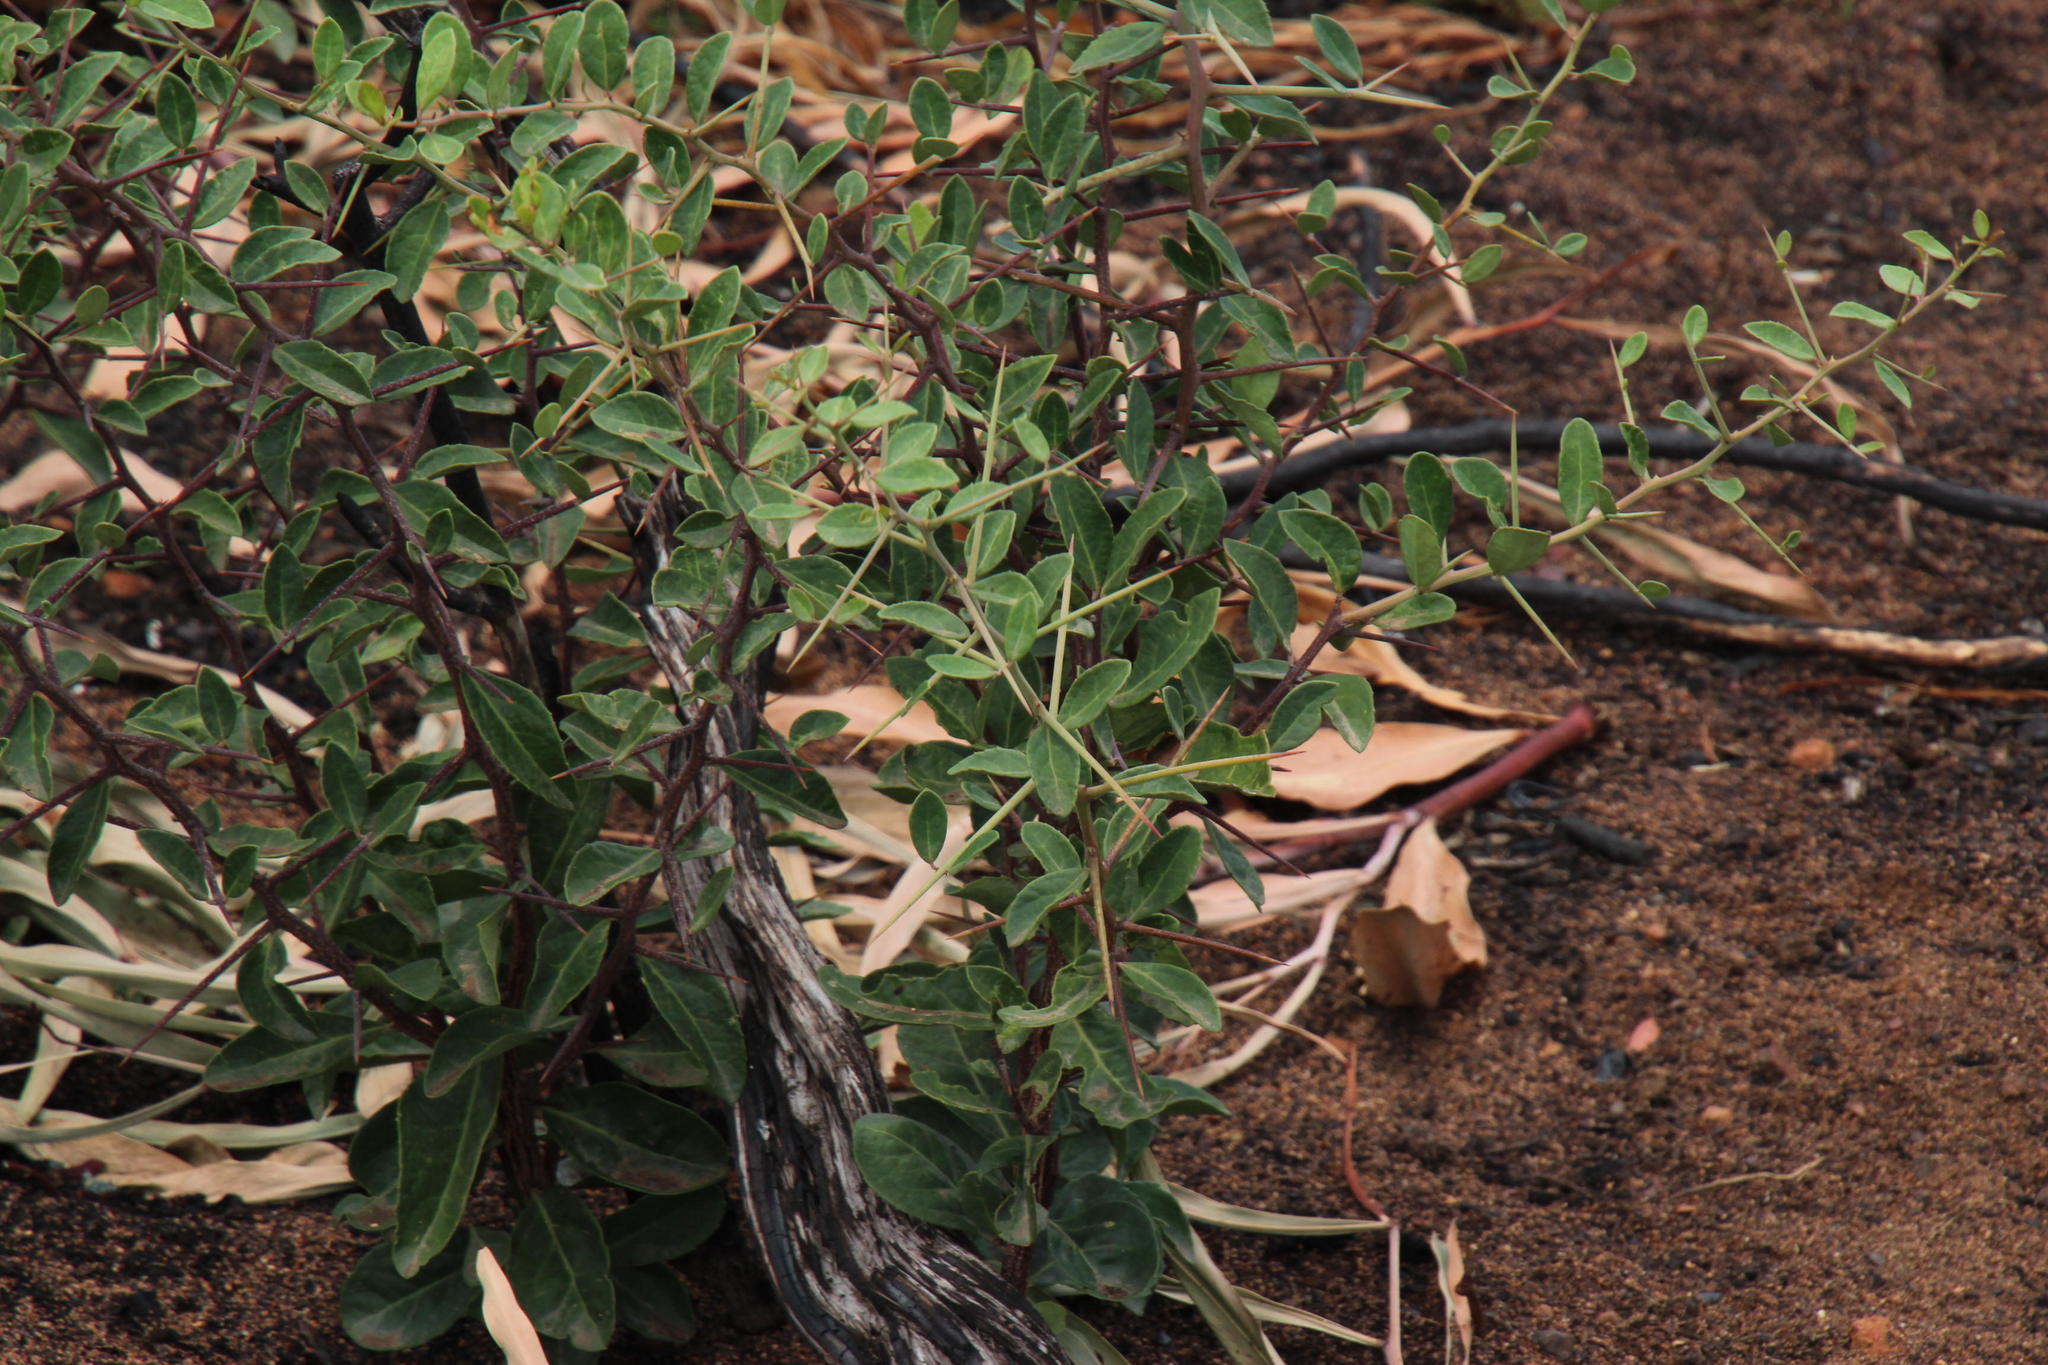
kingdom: Plantae
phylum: Tracheophyta
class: Magnoliopsida
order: Celastrales
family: Celastraceae
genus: Putterlickia
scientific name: Putterlickia pyracantha
